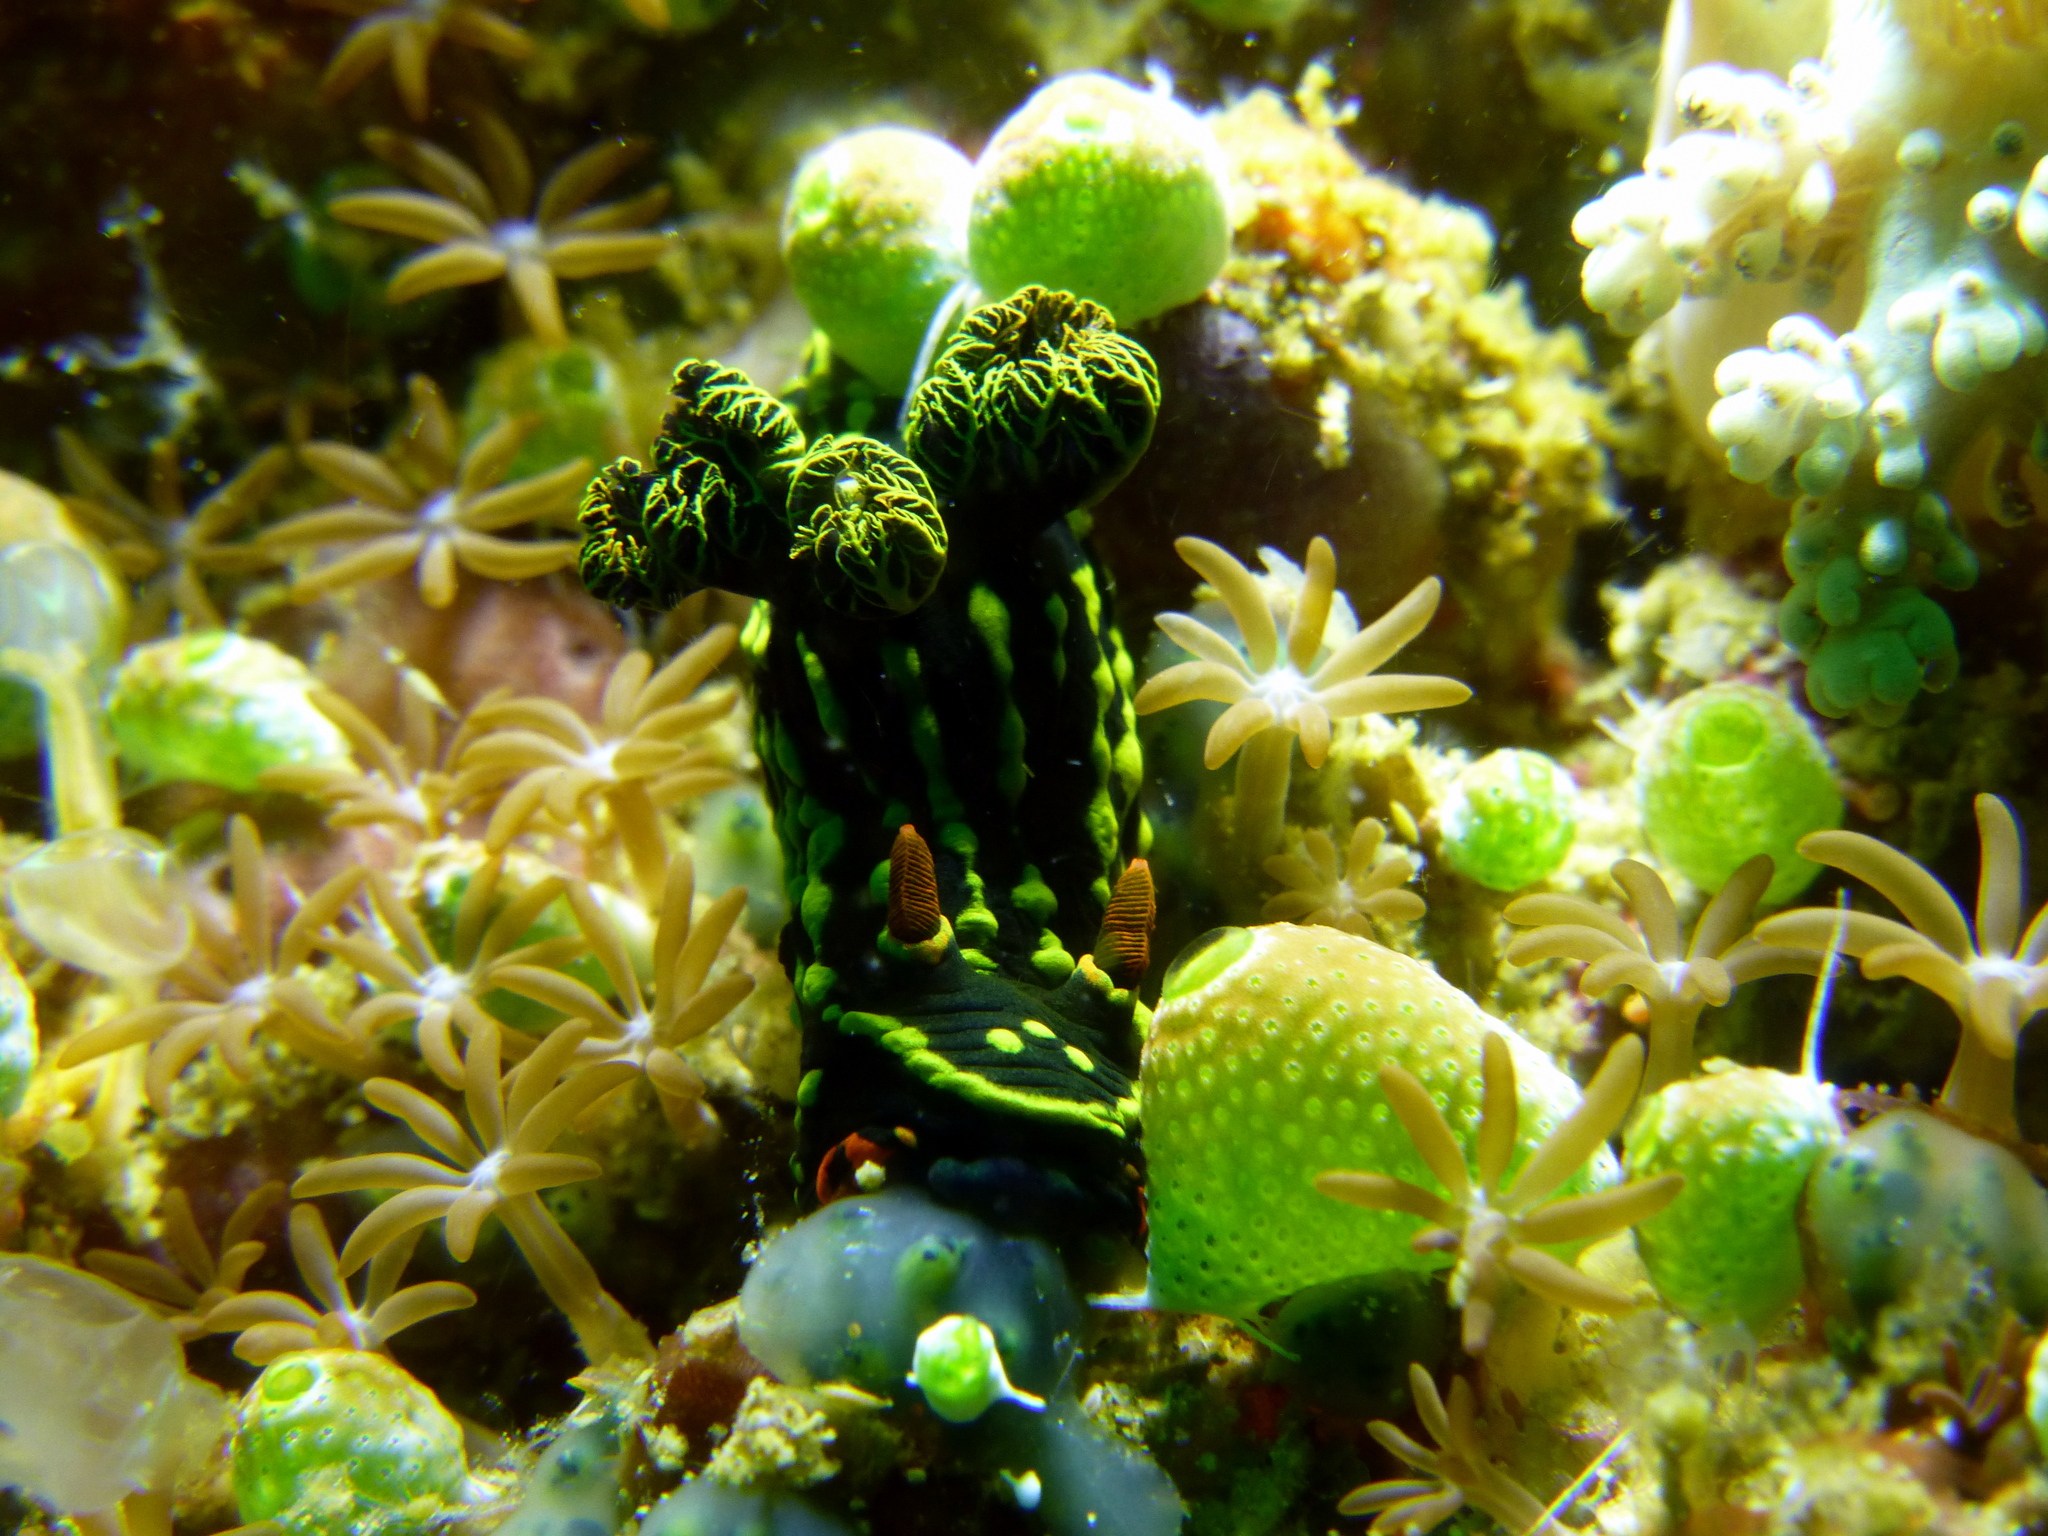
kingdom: Animalia
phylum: Mollusca
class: Gastropoda
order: Nudibranchia
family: Polyceridae
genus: Nembrotha
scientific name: Nembrotha kubaryana
